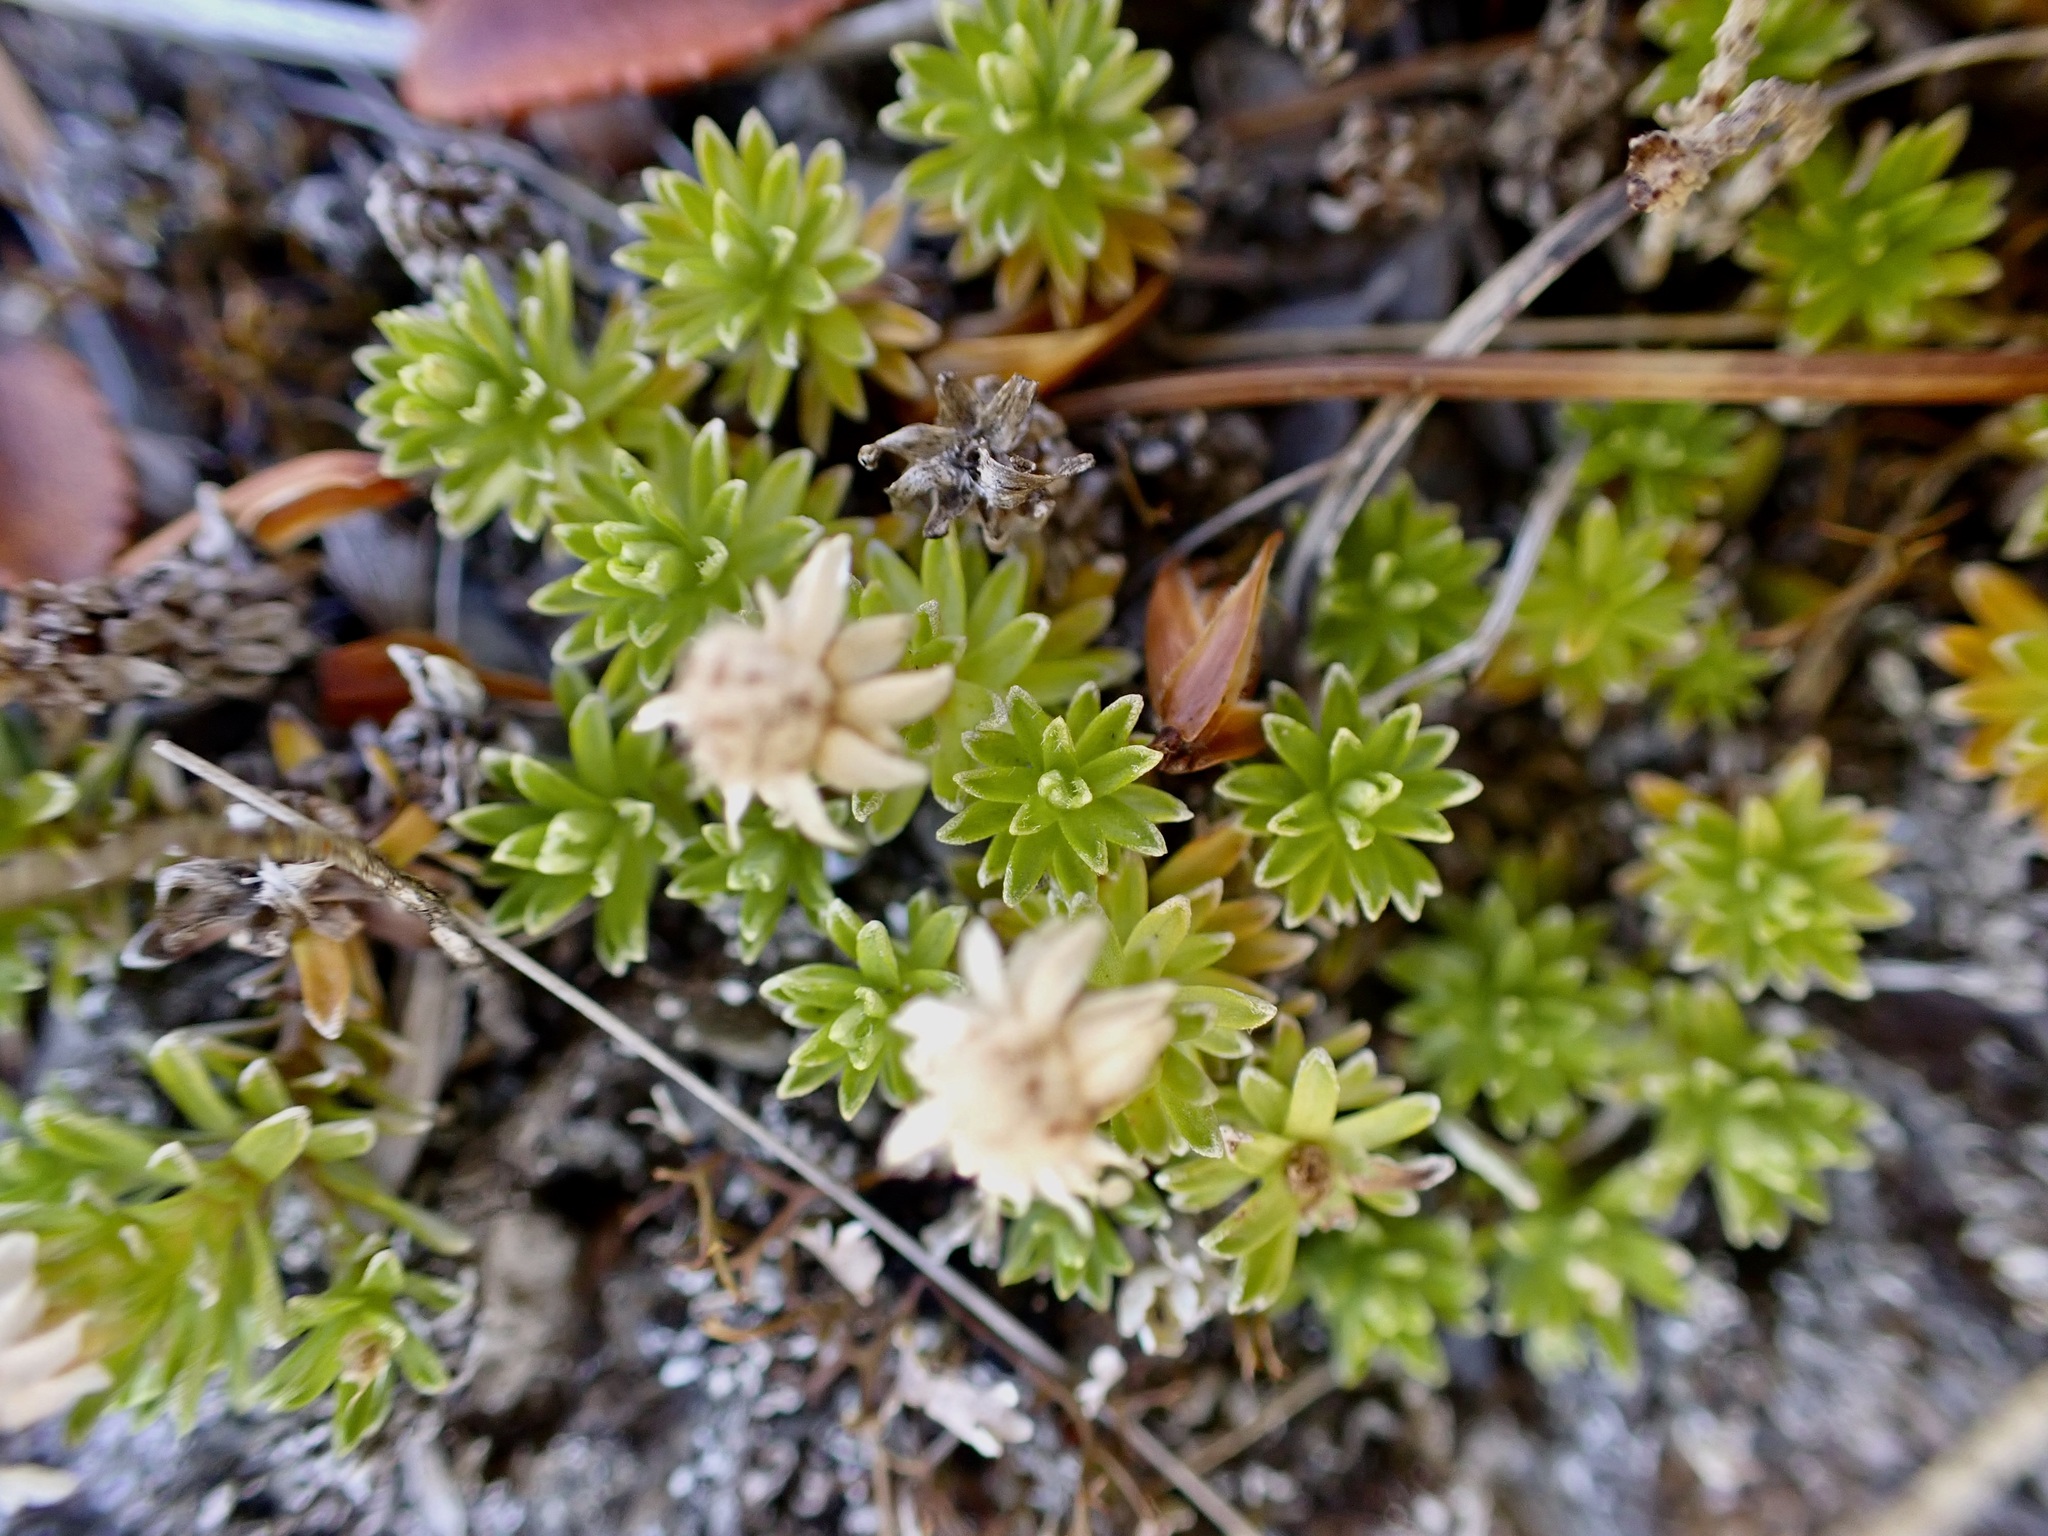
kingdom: Plantae
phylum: Tracheophyta
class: Magnoliopsida
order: Asterales
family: Asteraceae
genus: Raoulia
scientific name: Raoulia glabra
